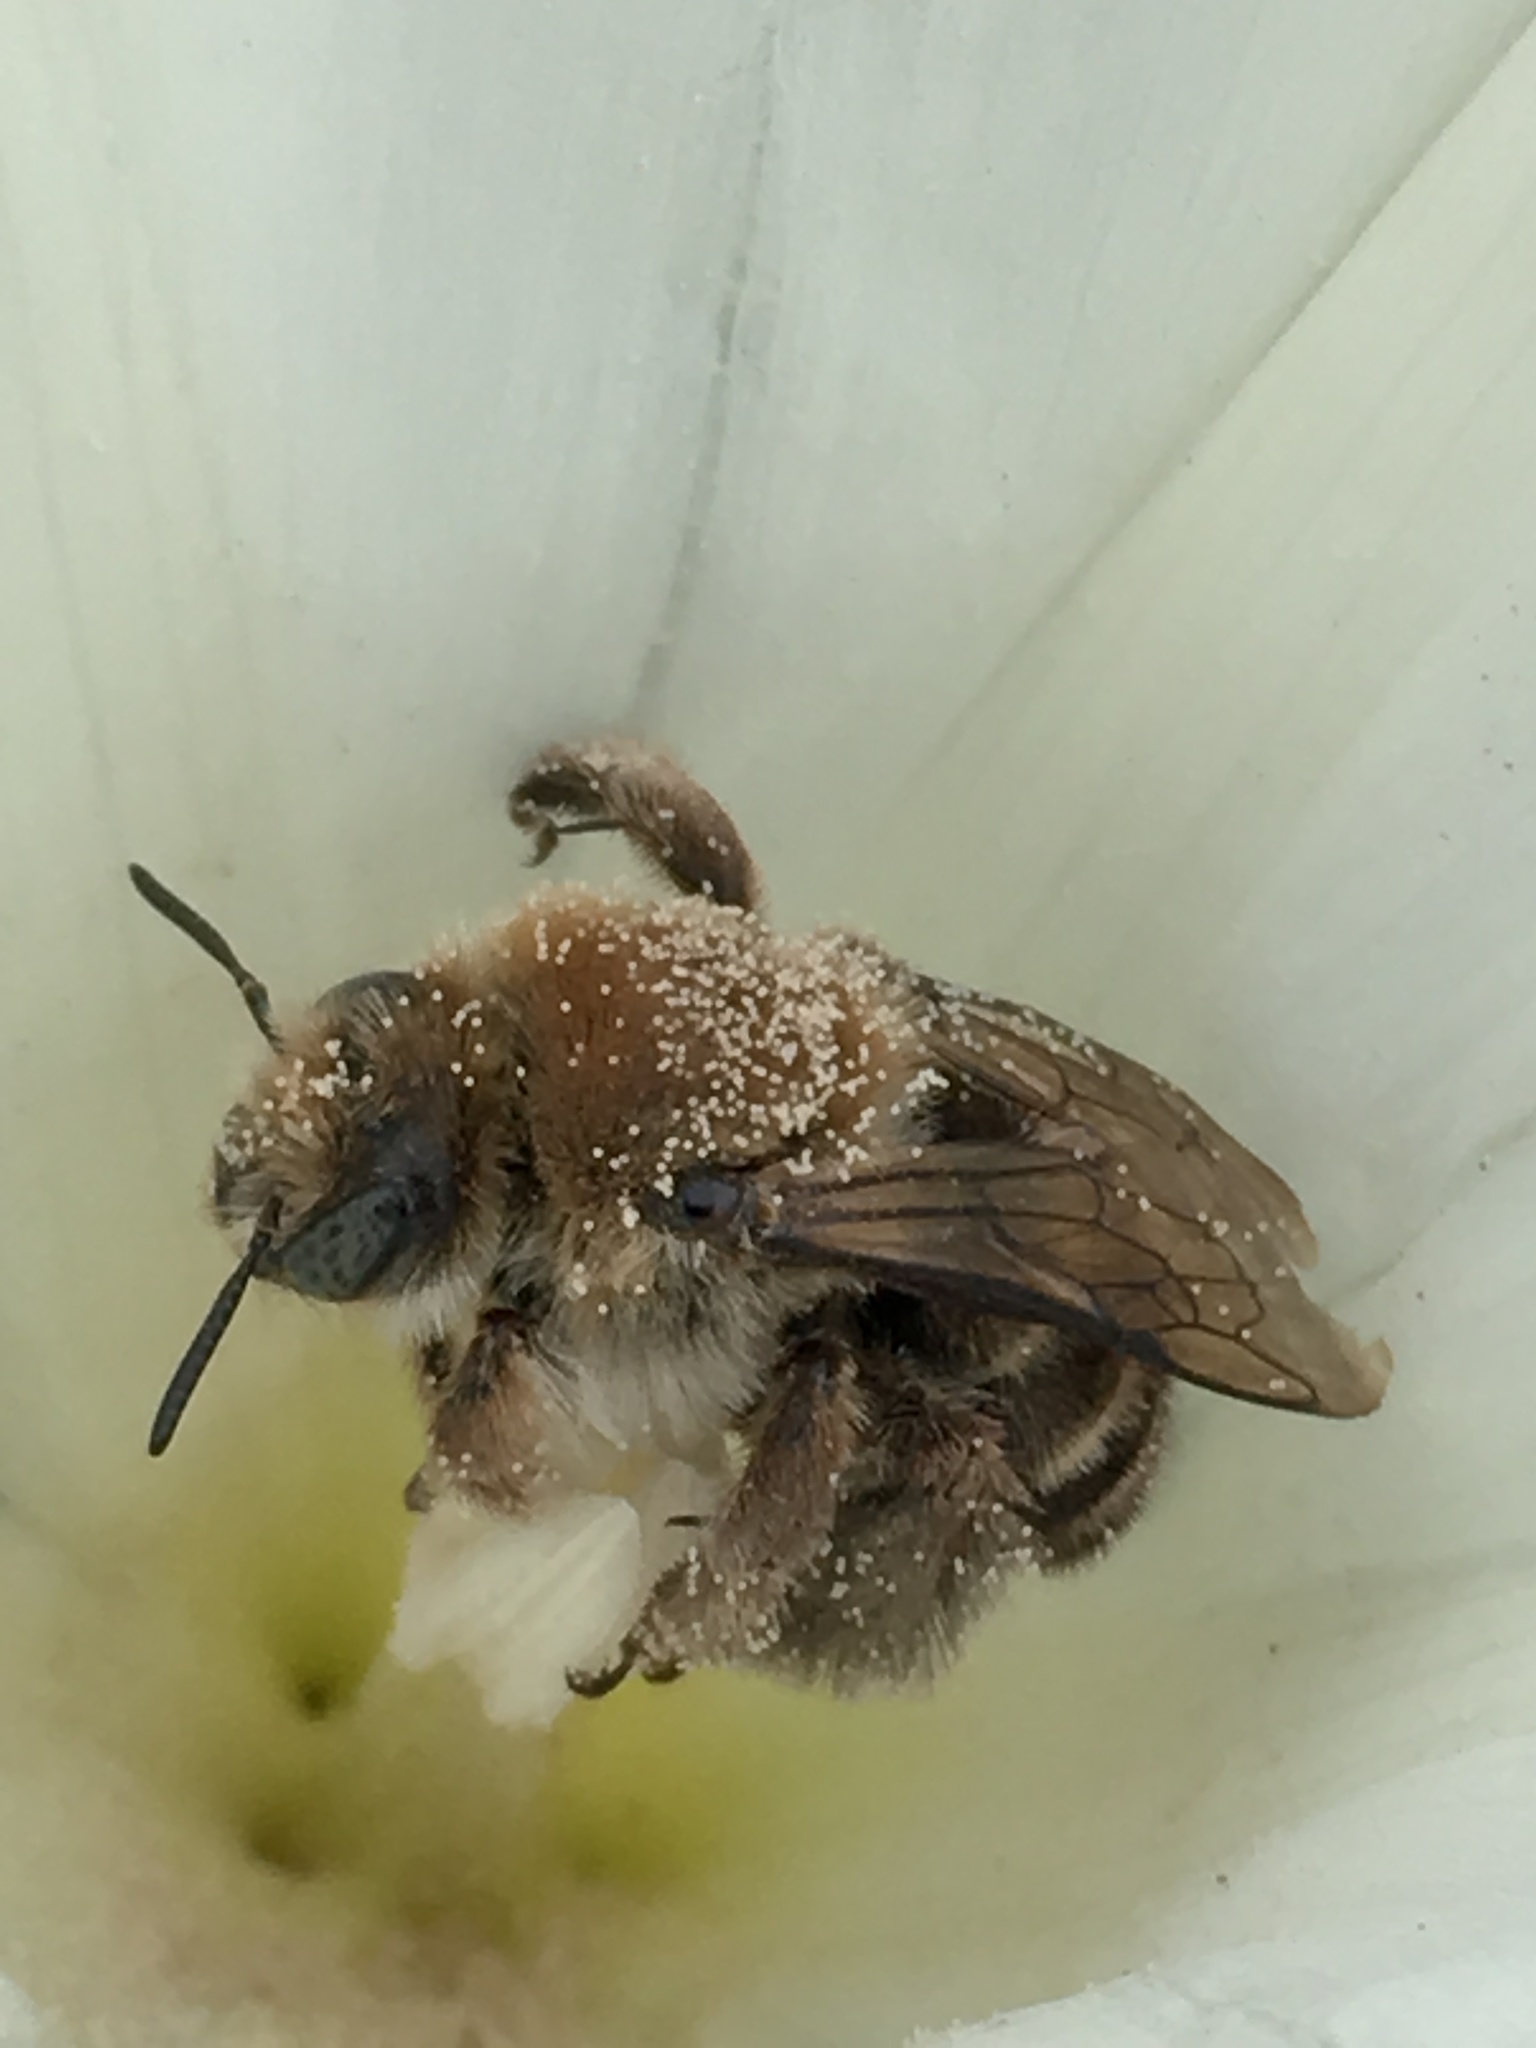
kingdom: Animalia
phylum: Arthropoda
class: Insecta
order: Hymenoptera
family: Apidae
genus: Diadasia
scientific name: Diadasia bituberculata
